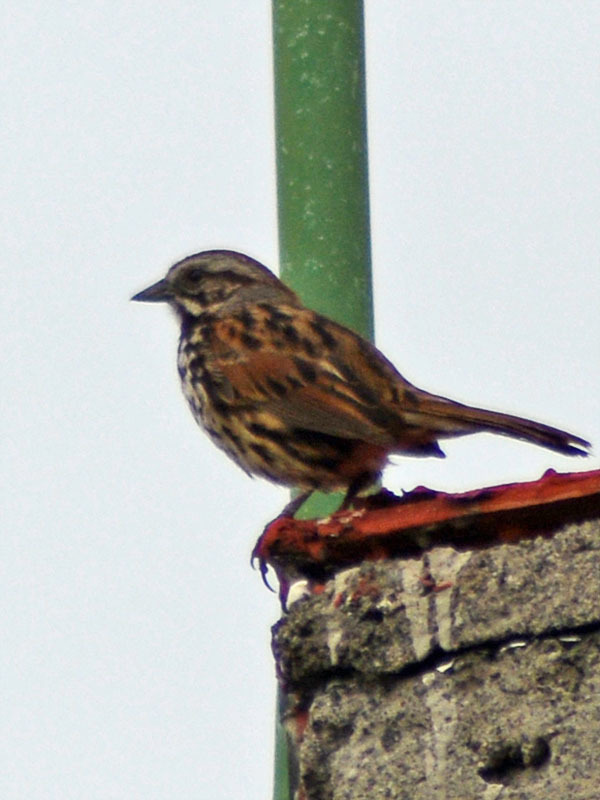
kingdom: Animalia
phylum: Chordata
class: Aves
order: Passeriformes
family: Passerellidae
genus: Melospiza
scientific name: Melospiza melodia
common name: Song sparrow
